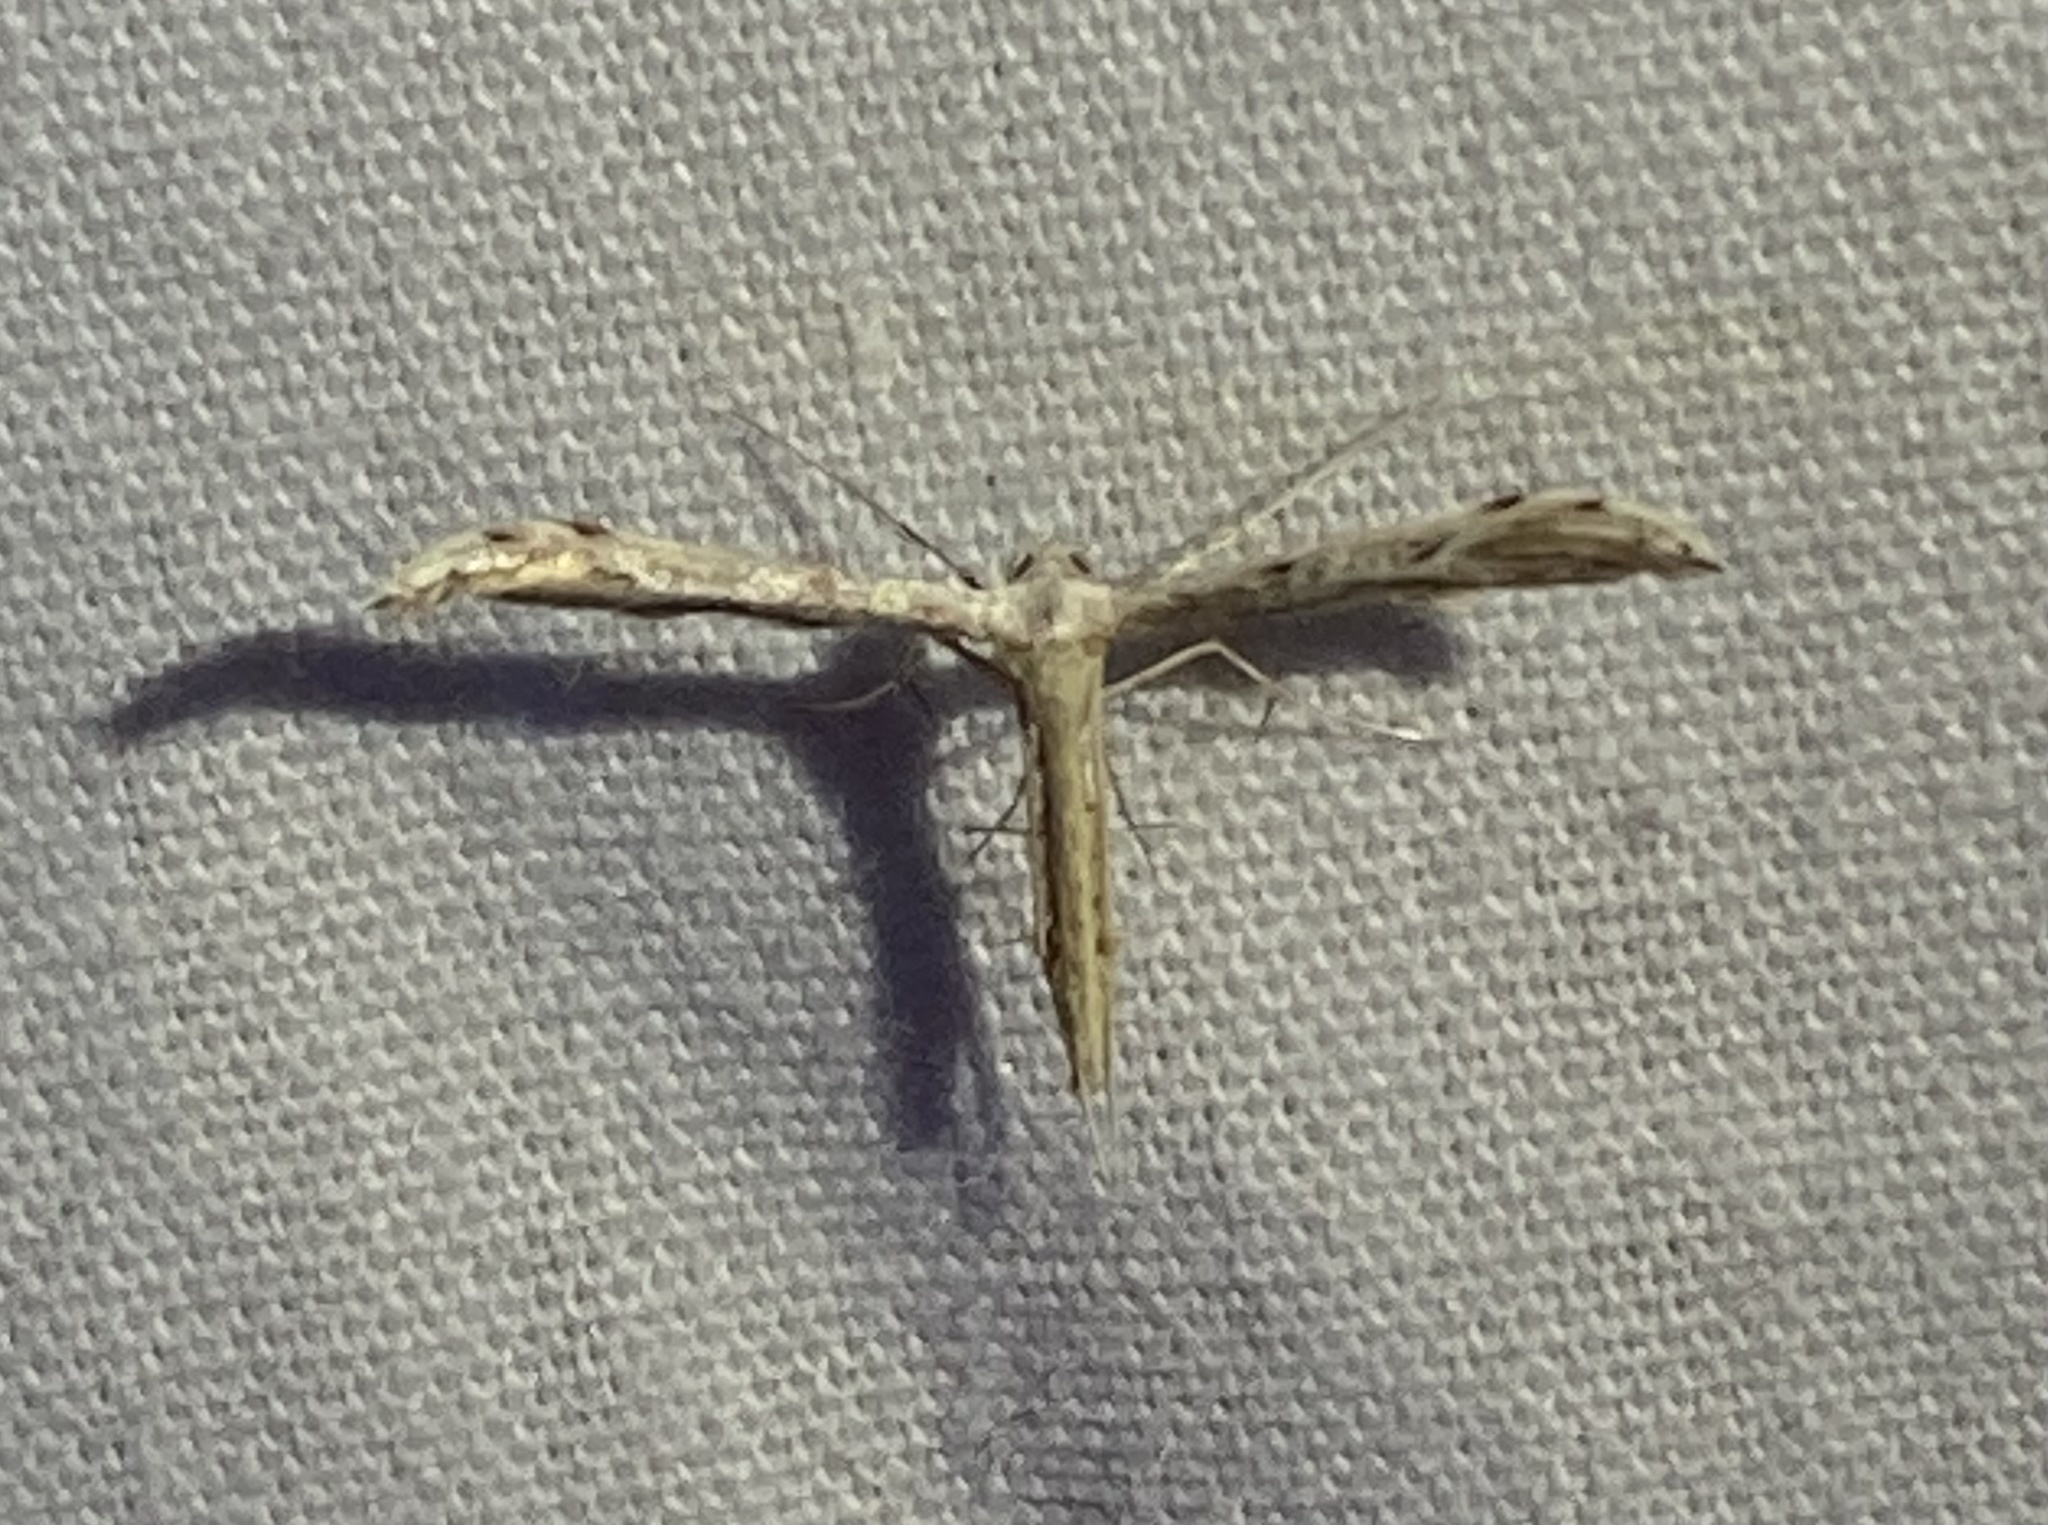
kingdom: Animalia
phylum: Arthropoda
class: Insecta
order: Lepidoptera
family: Pterophoridae
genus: Pselnophorus
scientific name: Pselnophorus belfragei
